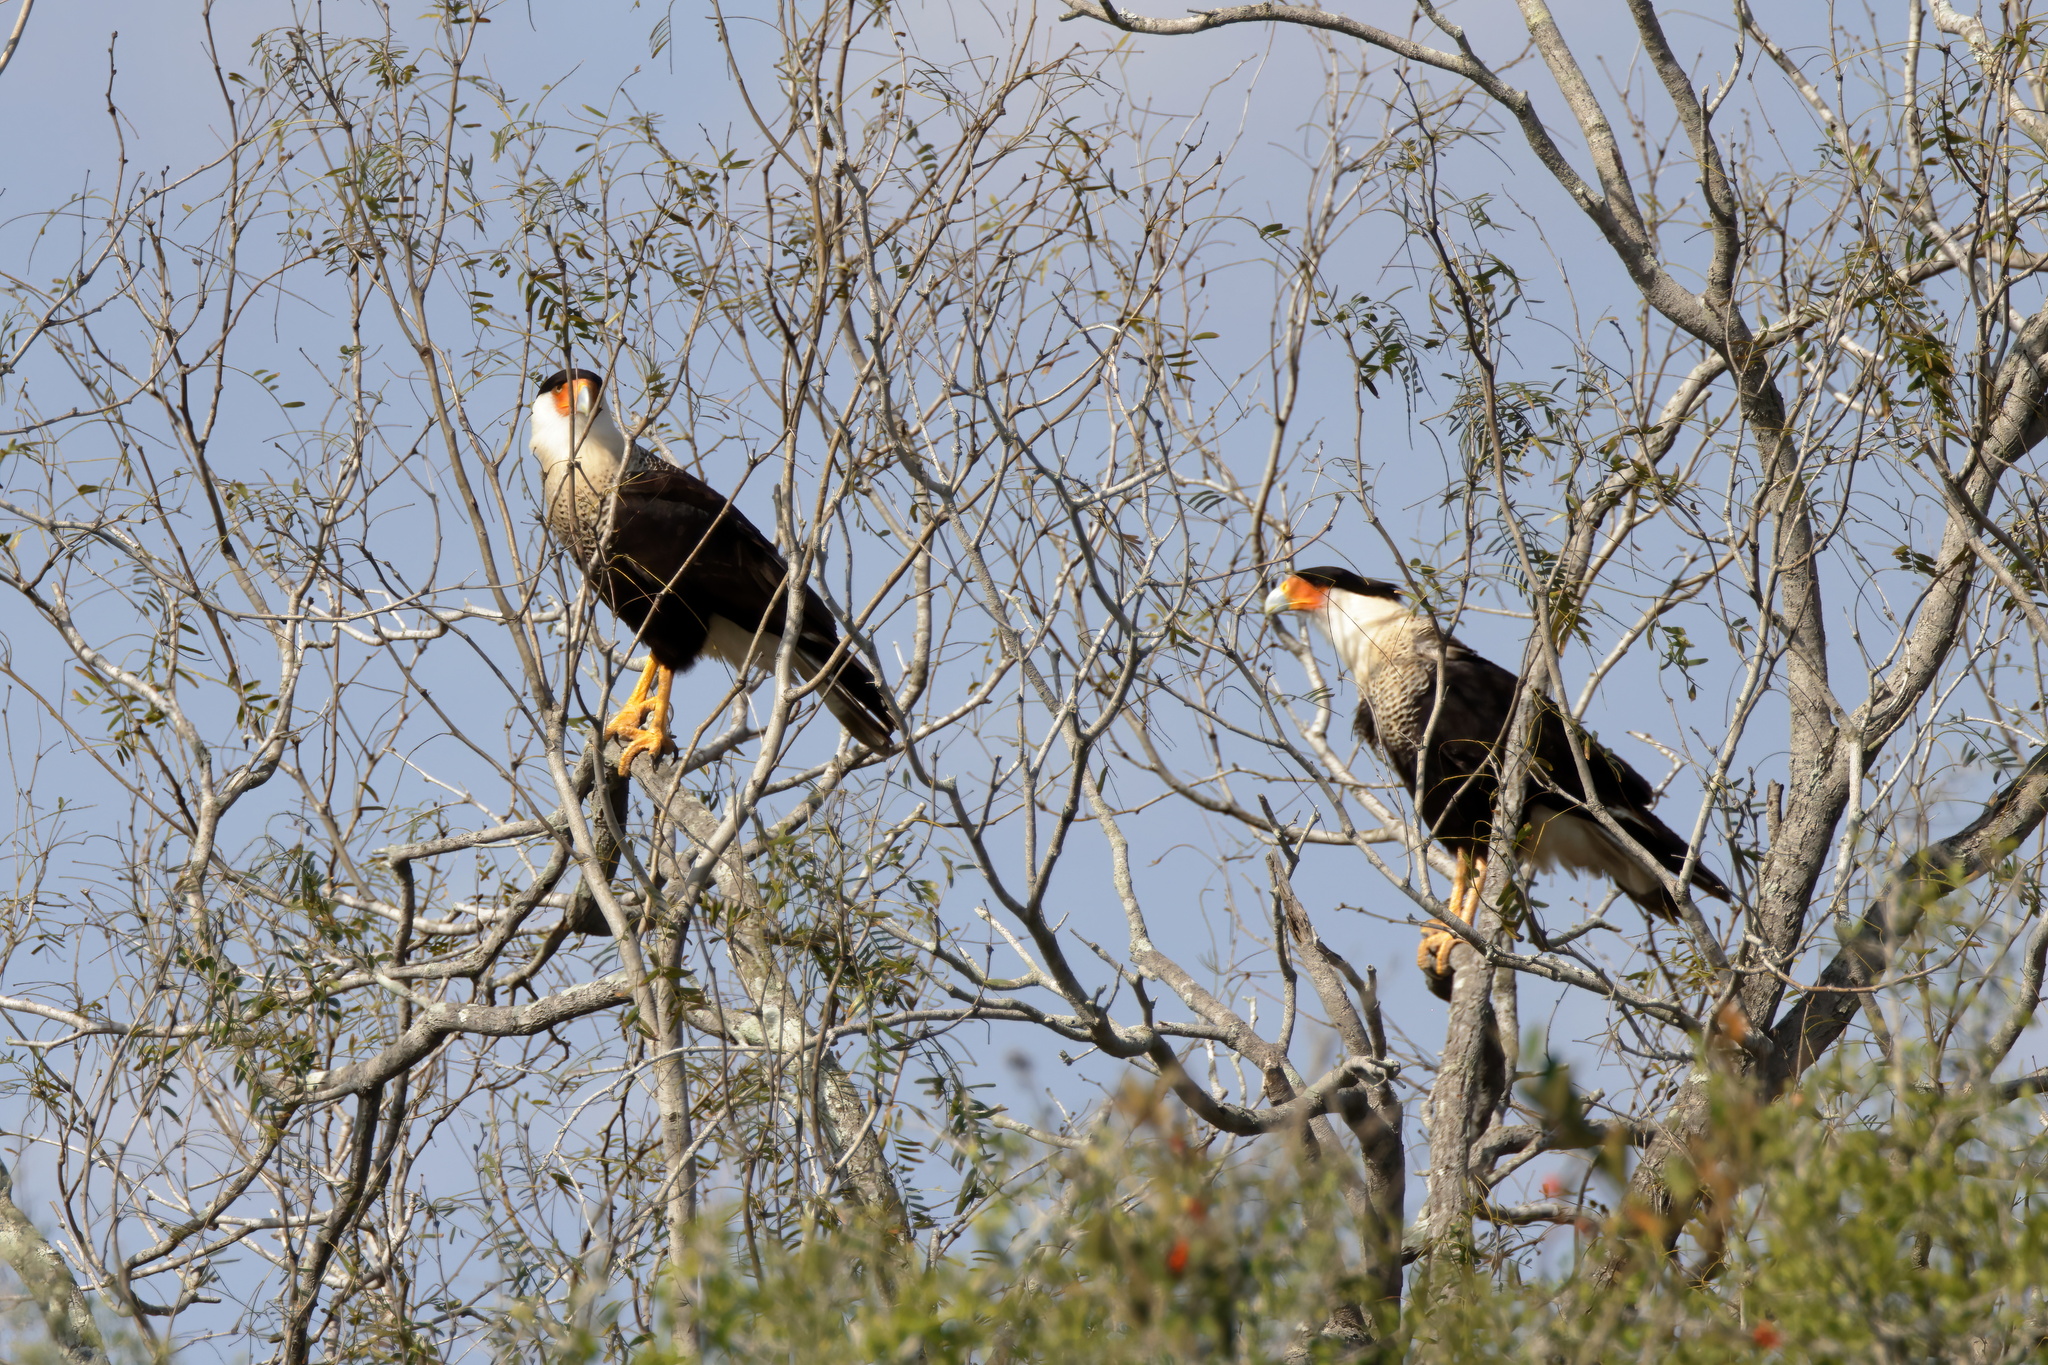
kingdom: Animalia
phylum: Chordata
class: Aves
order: Falconiformes
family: Falconidae
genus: Caracara
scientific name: Caracara plancus
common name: Southern caracara
